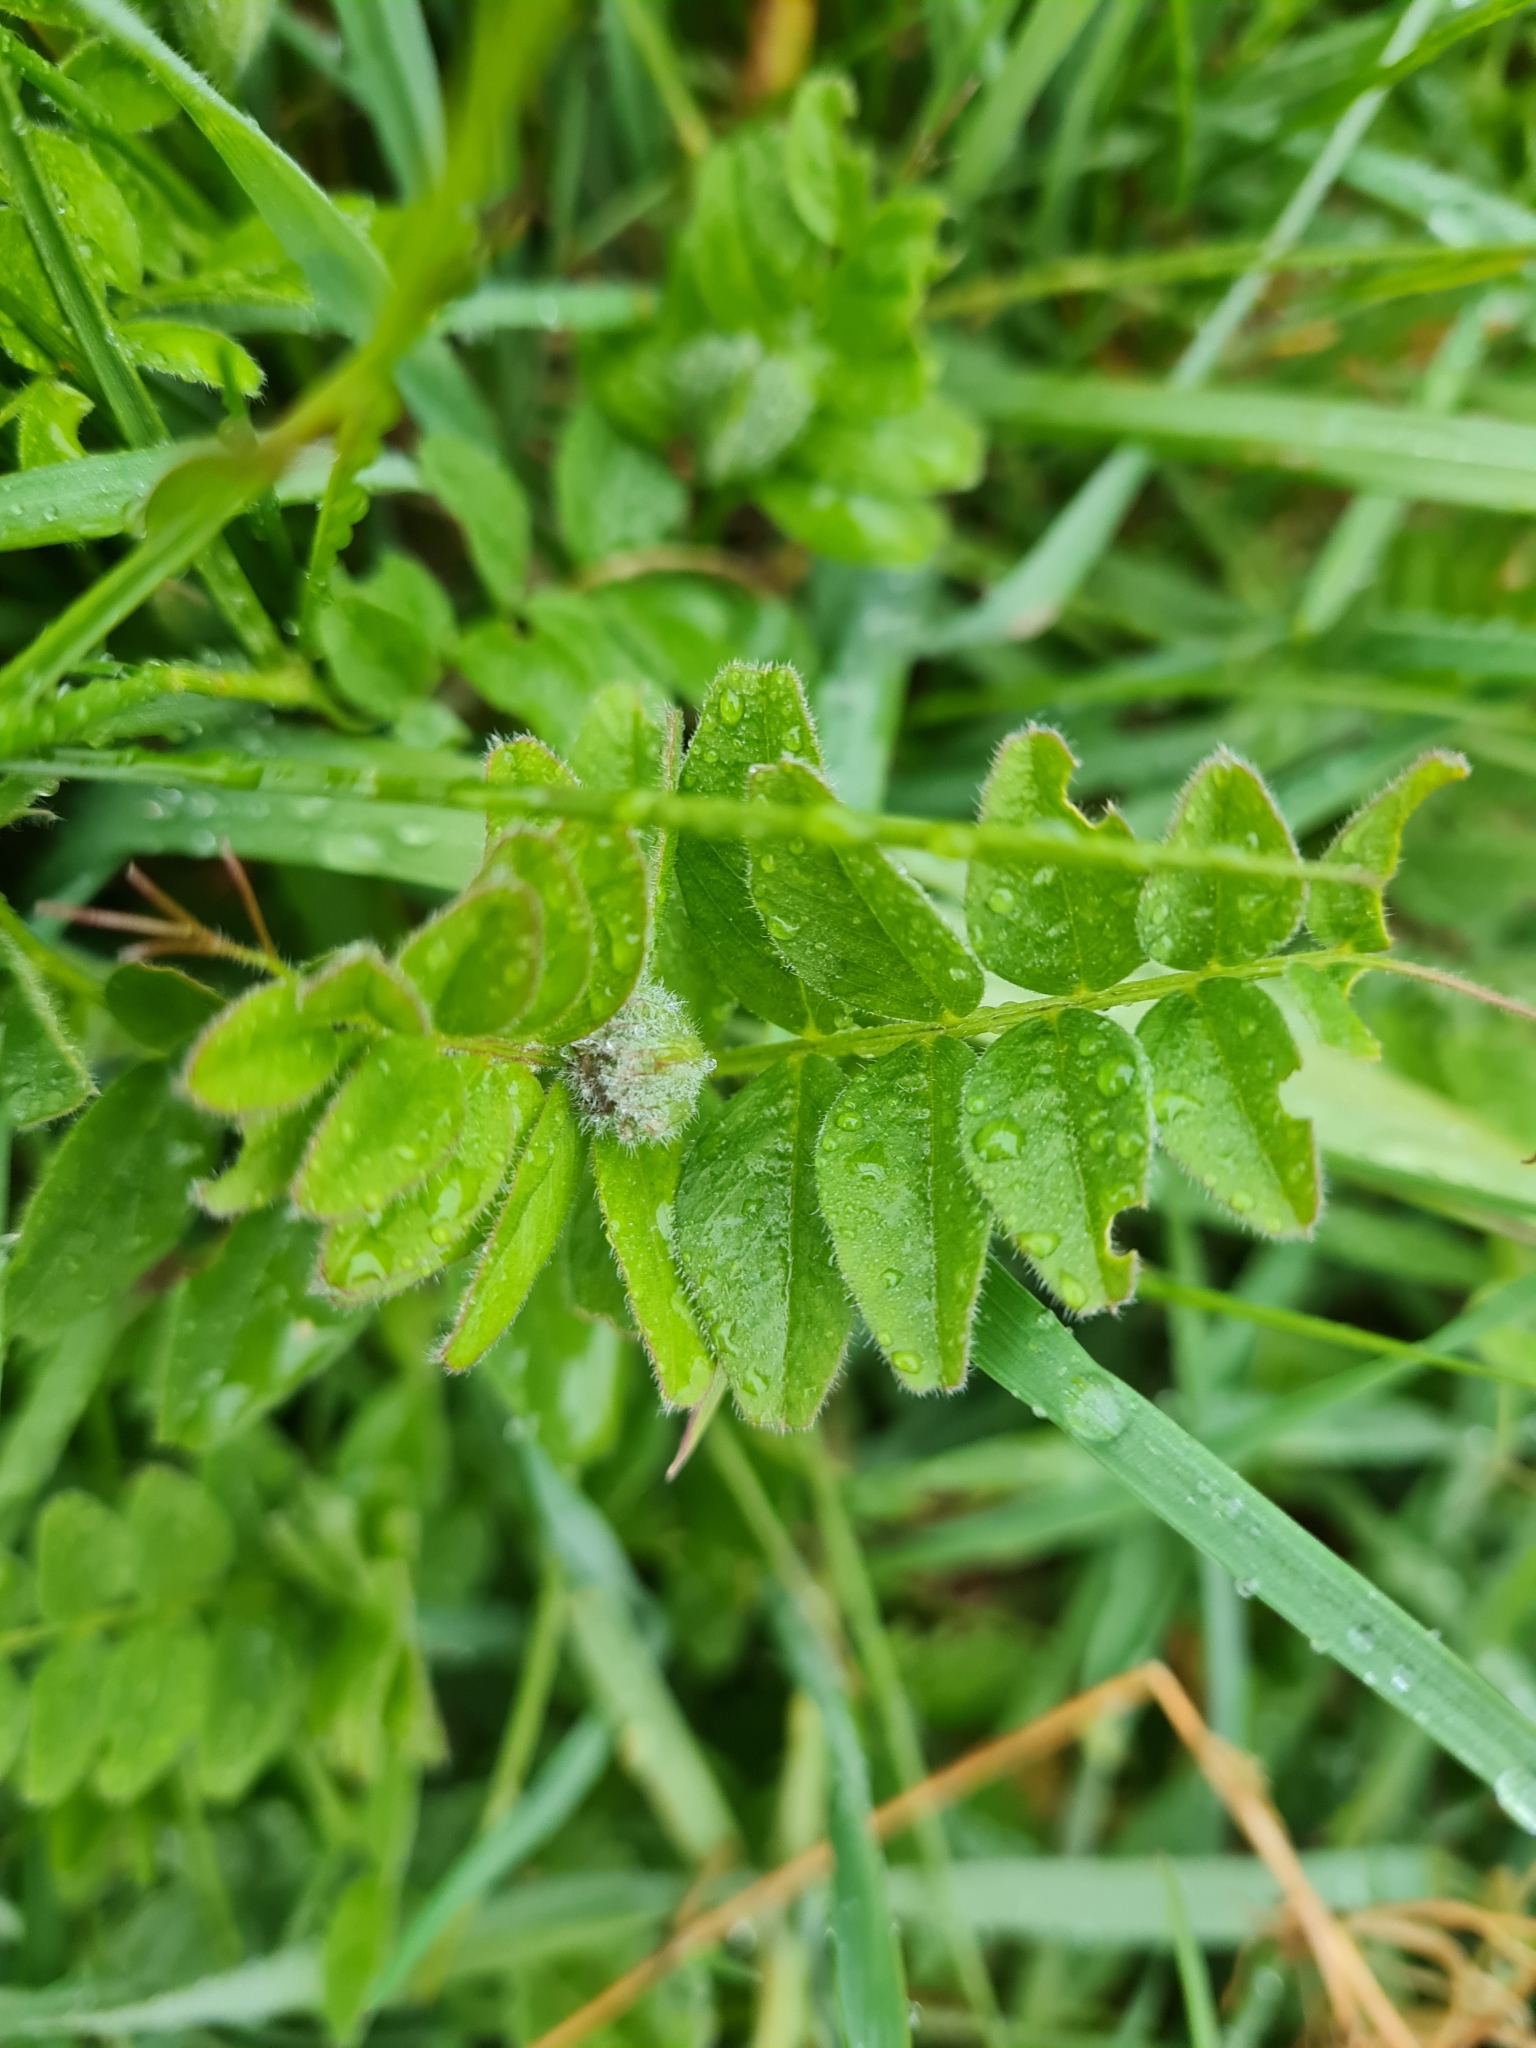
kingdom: Plantae
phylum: Tracheophyta
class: Magnoliopsida
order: Fabales
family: Fabaceae
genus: Vicia
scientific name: Vicia sepium
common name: Bush vetch
